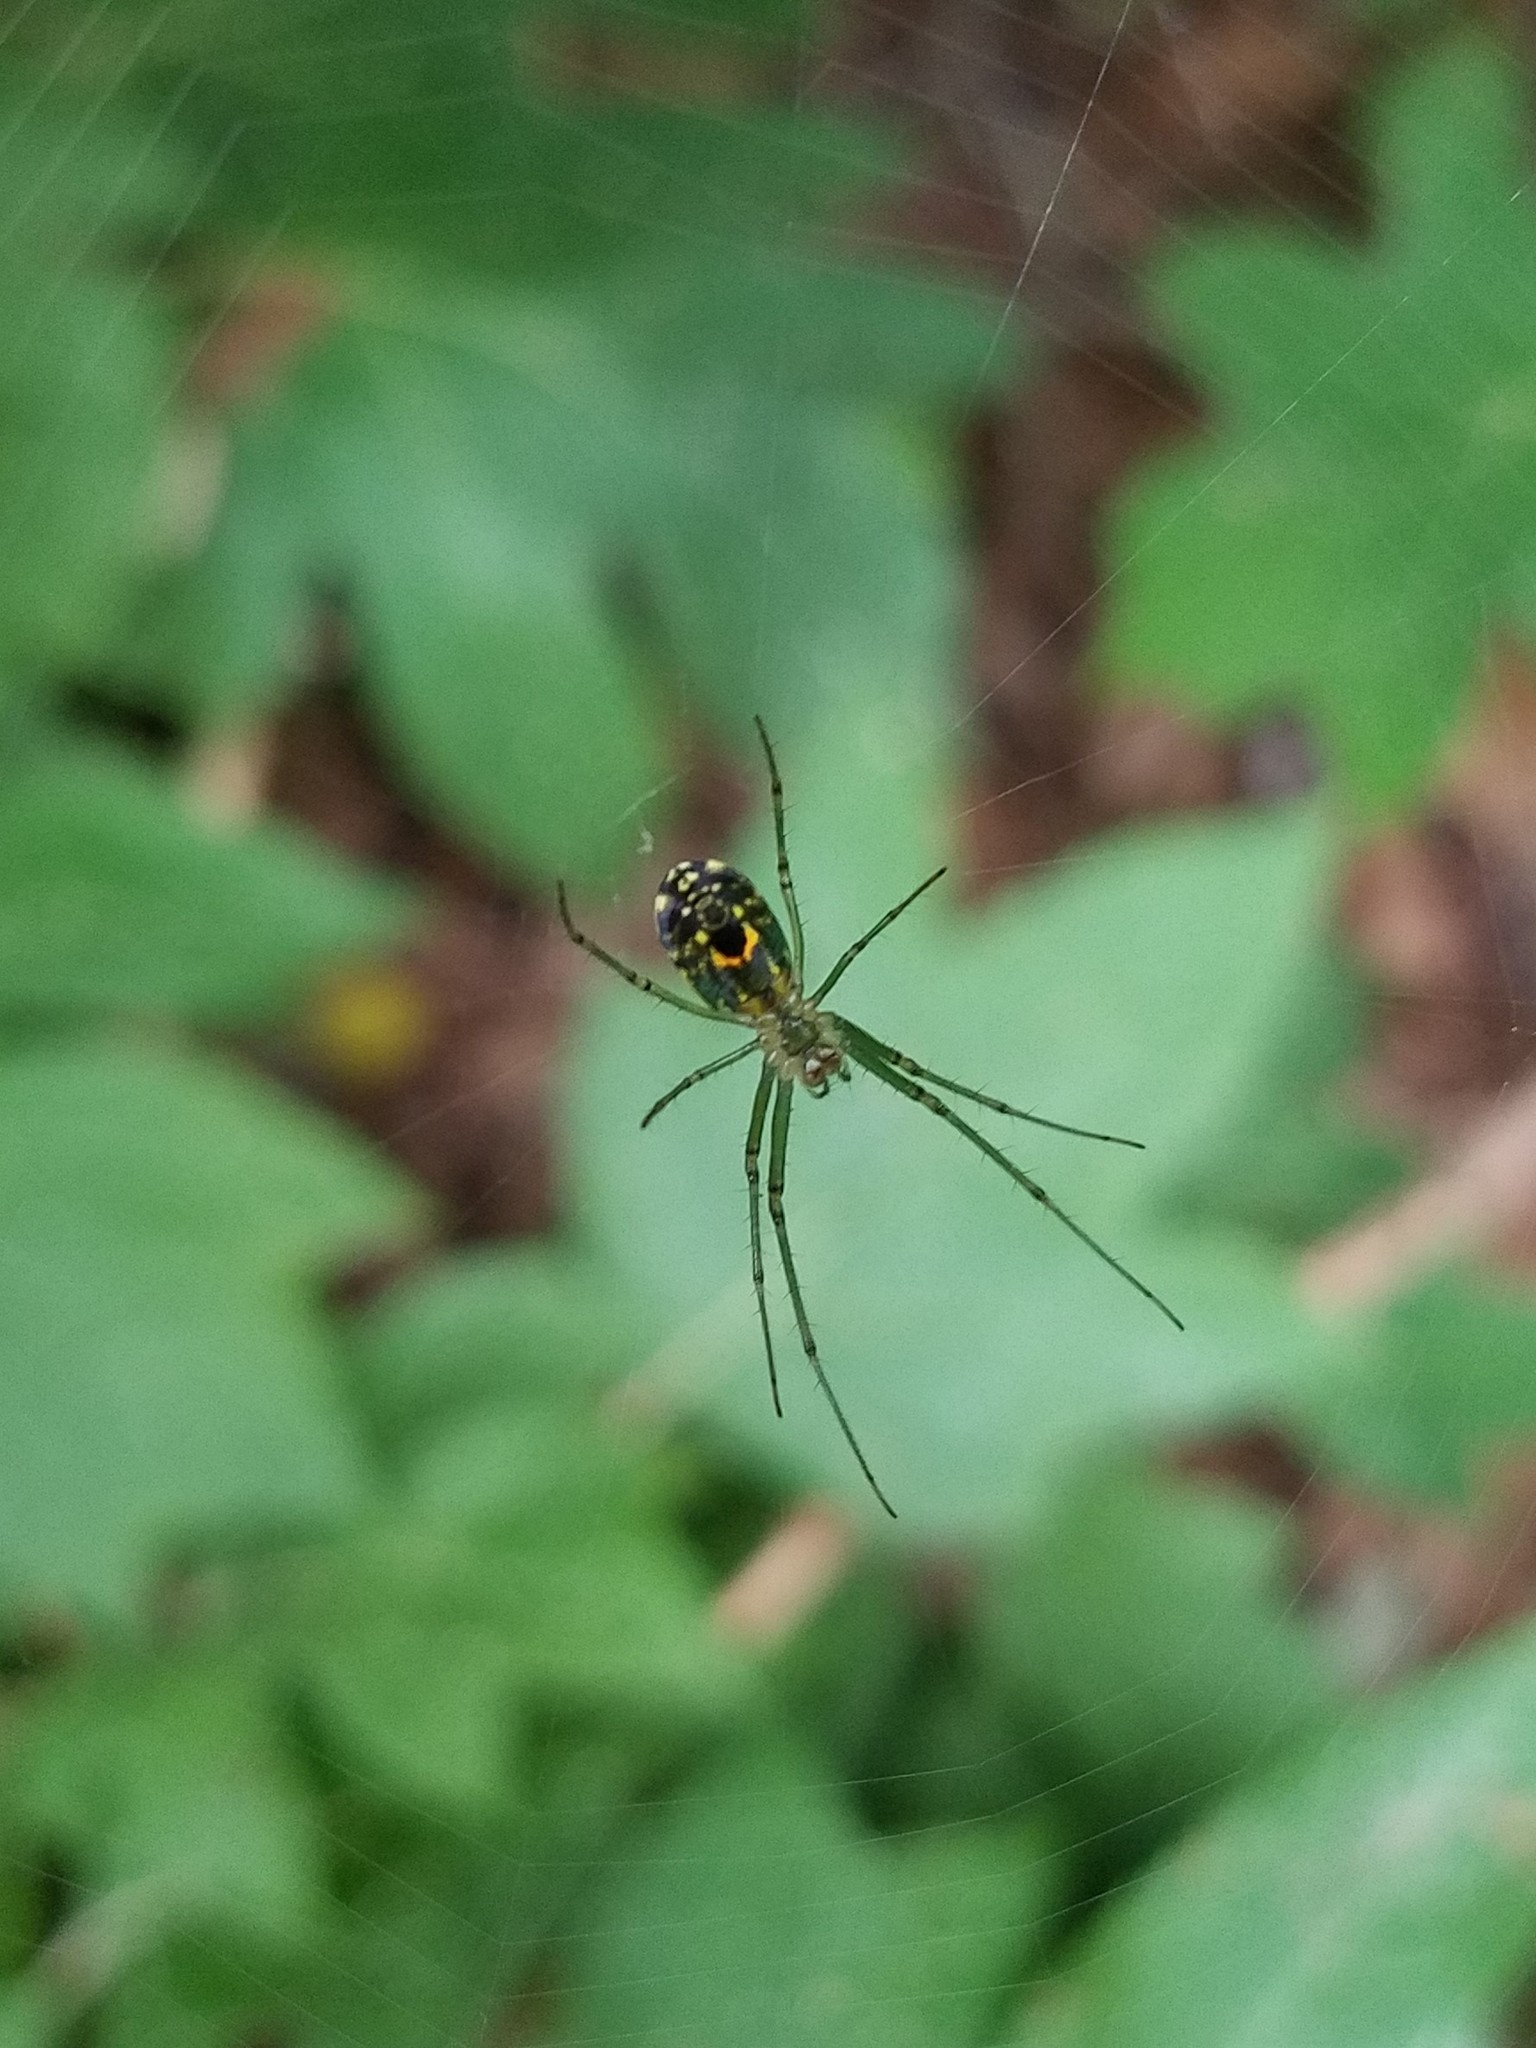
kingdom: Animalia
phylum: Arthropoda
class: Arachnida
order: Araneae
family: Tetragnathidae
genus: Leucauge
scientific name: Leucauge venusta
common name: Longjawed orb weavers
